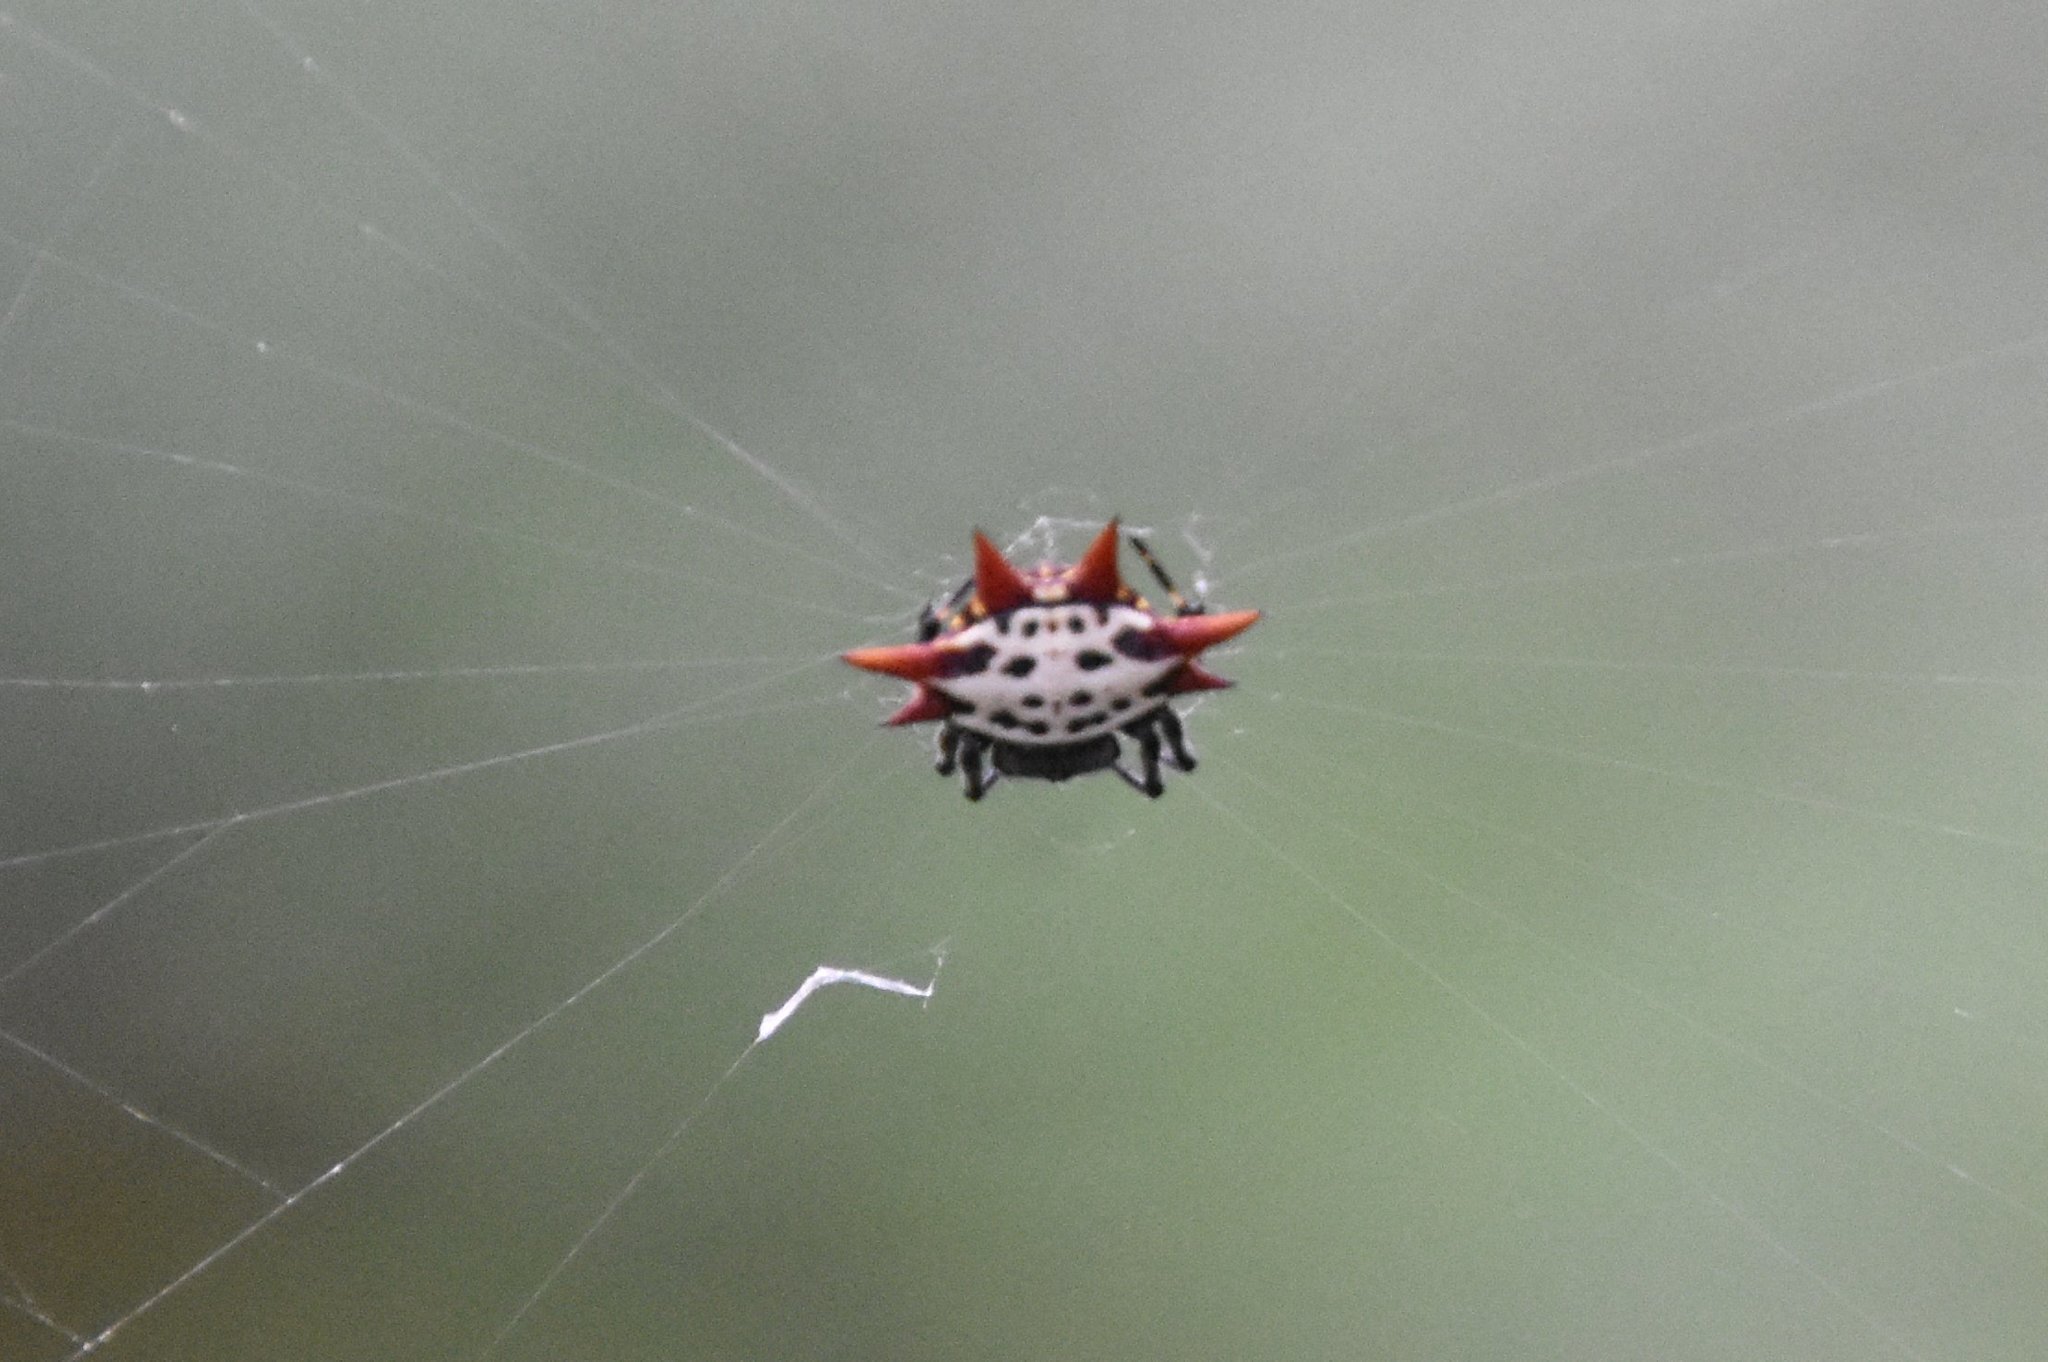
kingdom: Animalia
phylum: Arthropoda
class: Arachnida
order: Araneae
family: Araneidae
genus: Gasteracantha
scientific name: Gasteracantha cancriformis
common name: Orb weavers
